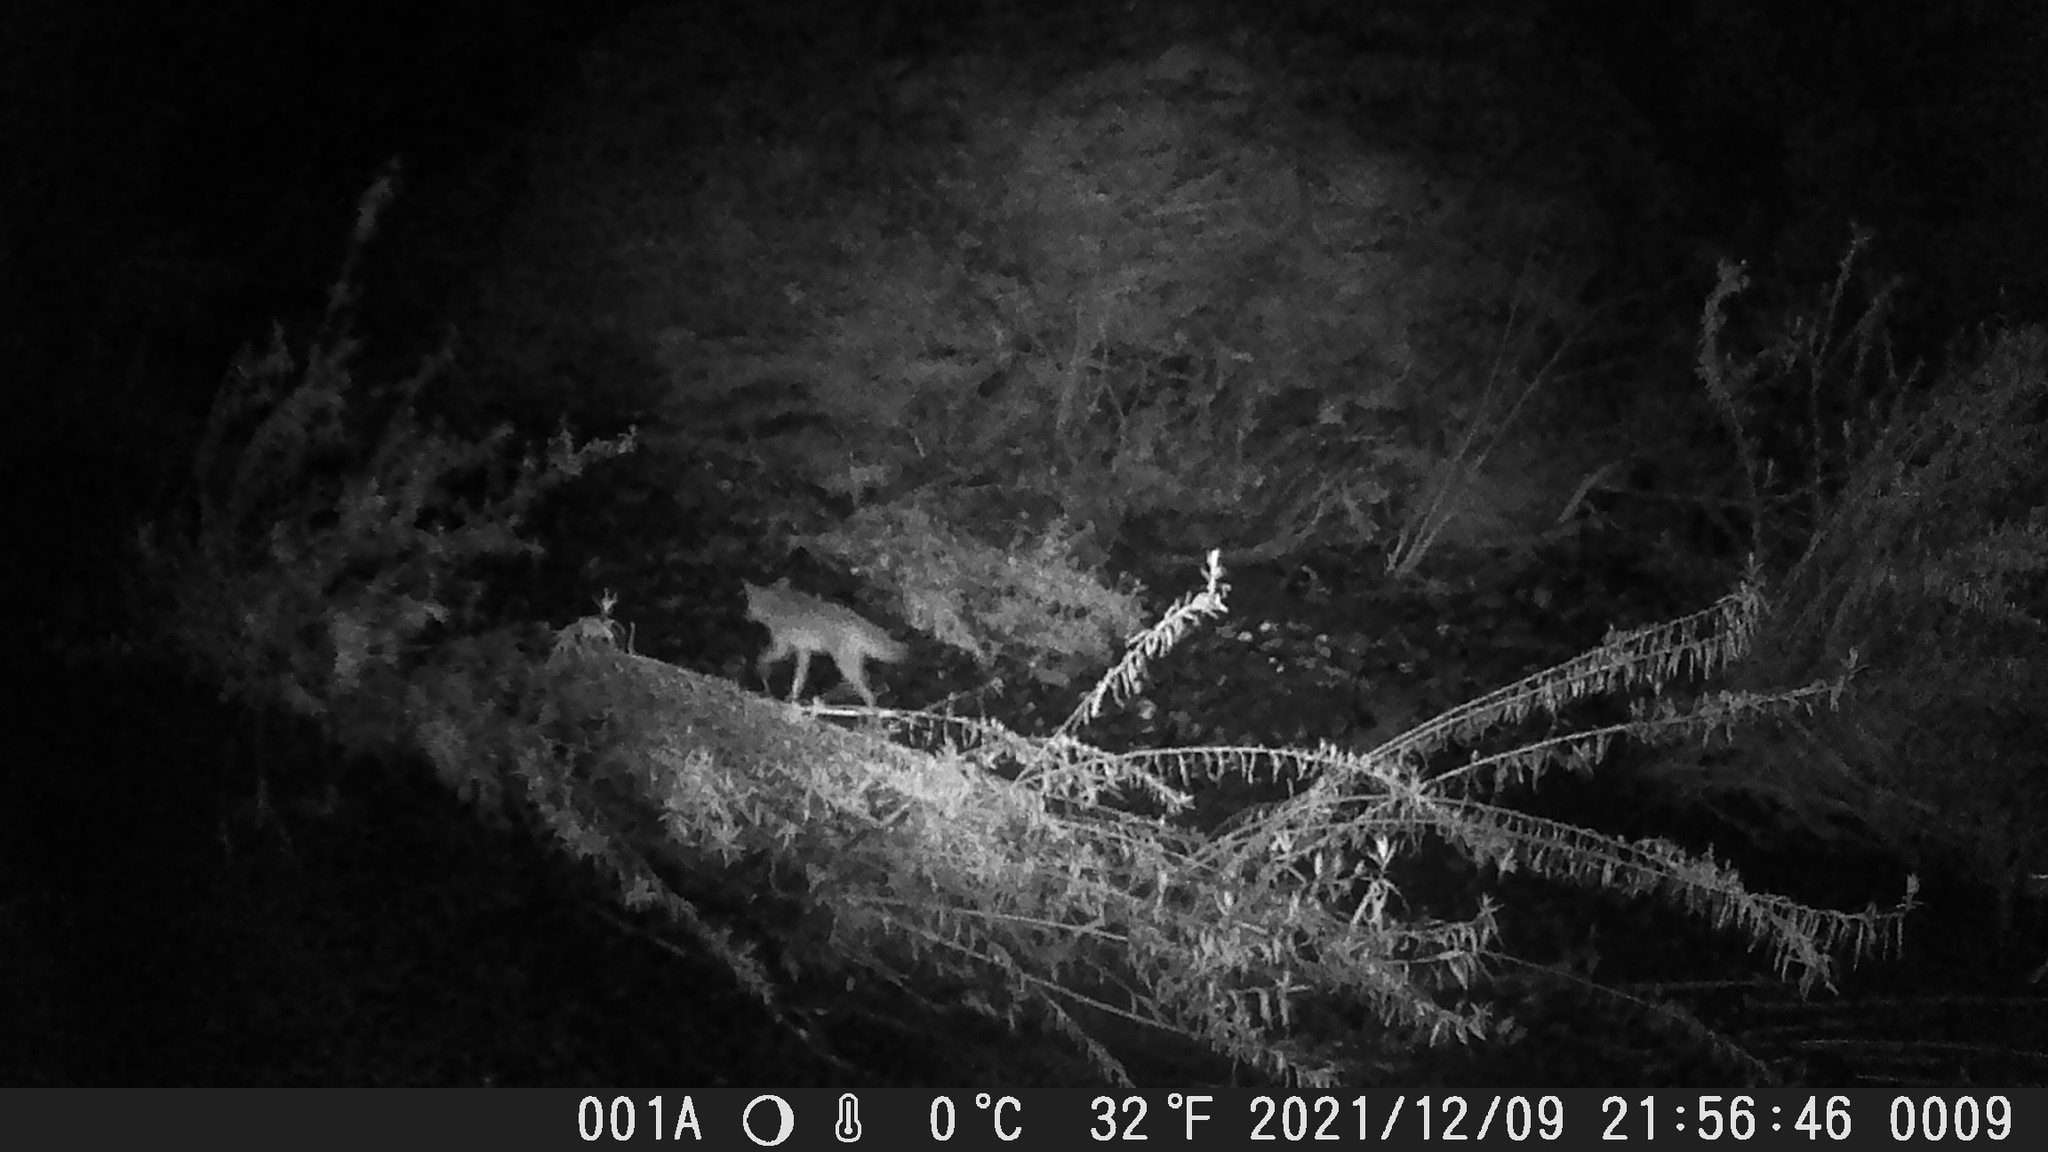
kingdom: Animalia
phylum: Chordata
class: Mammalia
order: Carnivora
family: Canidae
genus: Canis
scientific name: Canis latrans
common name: Coyote
